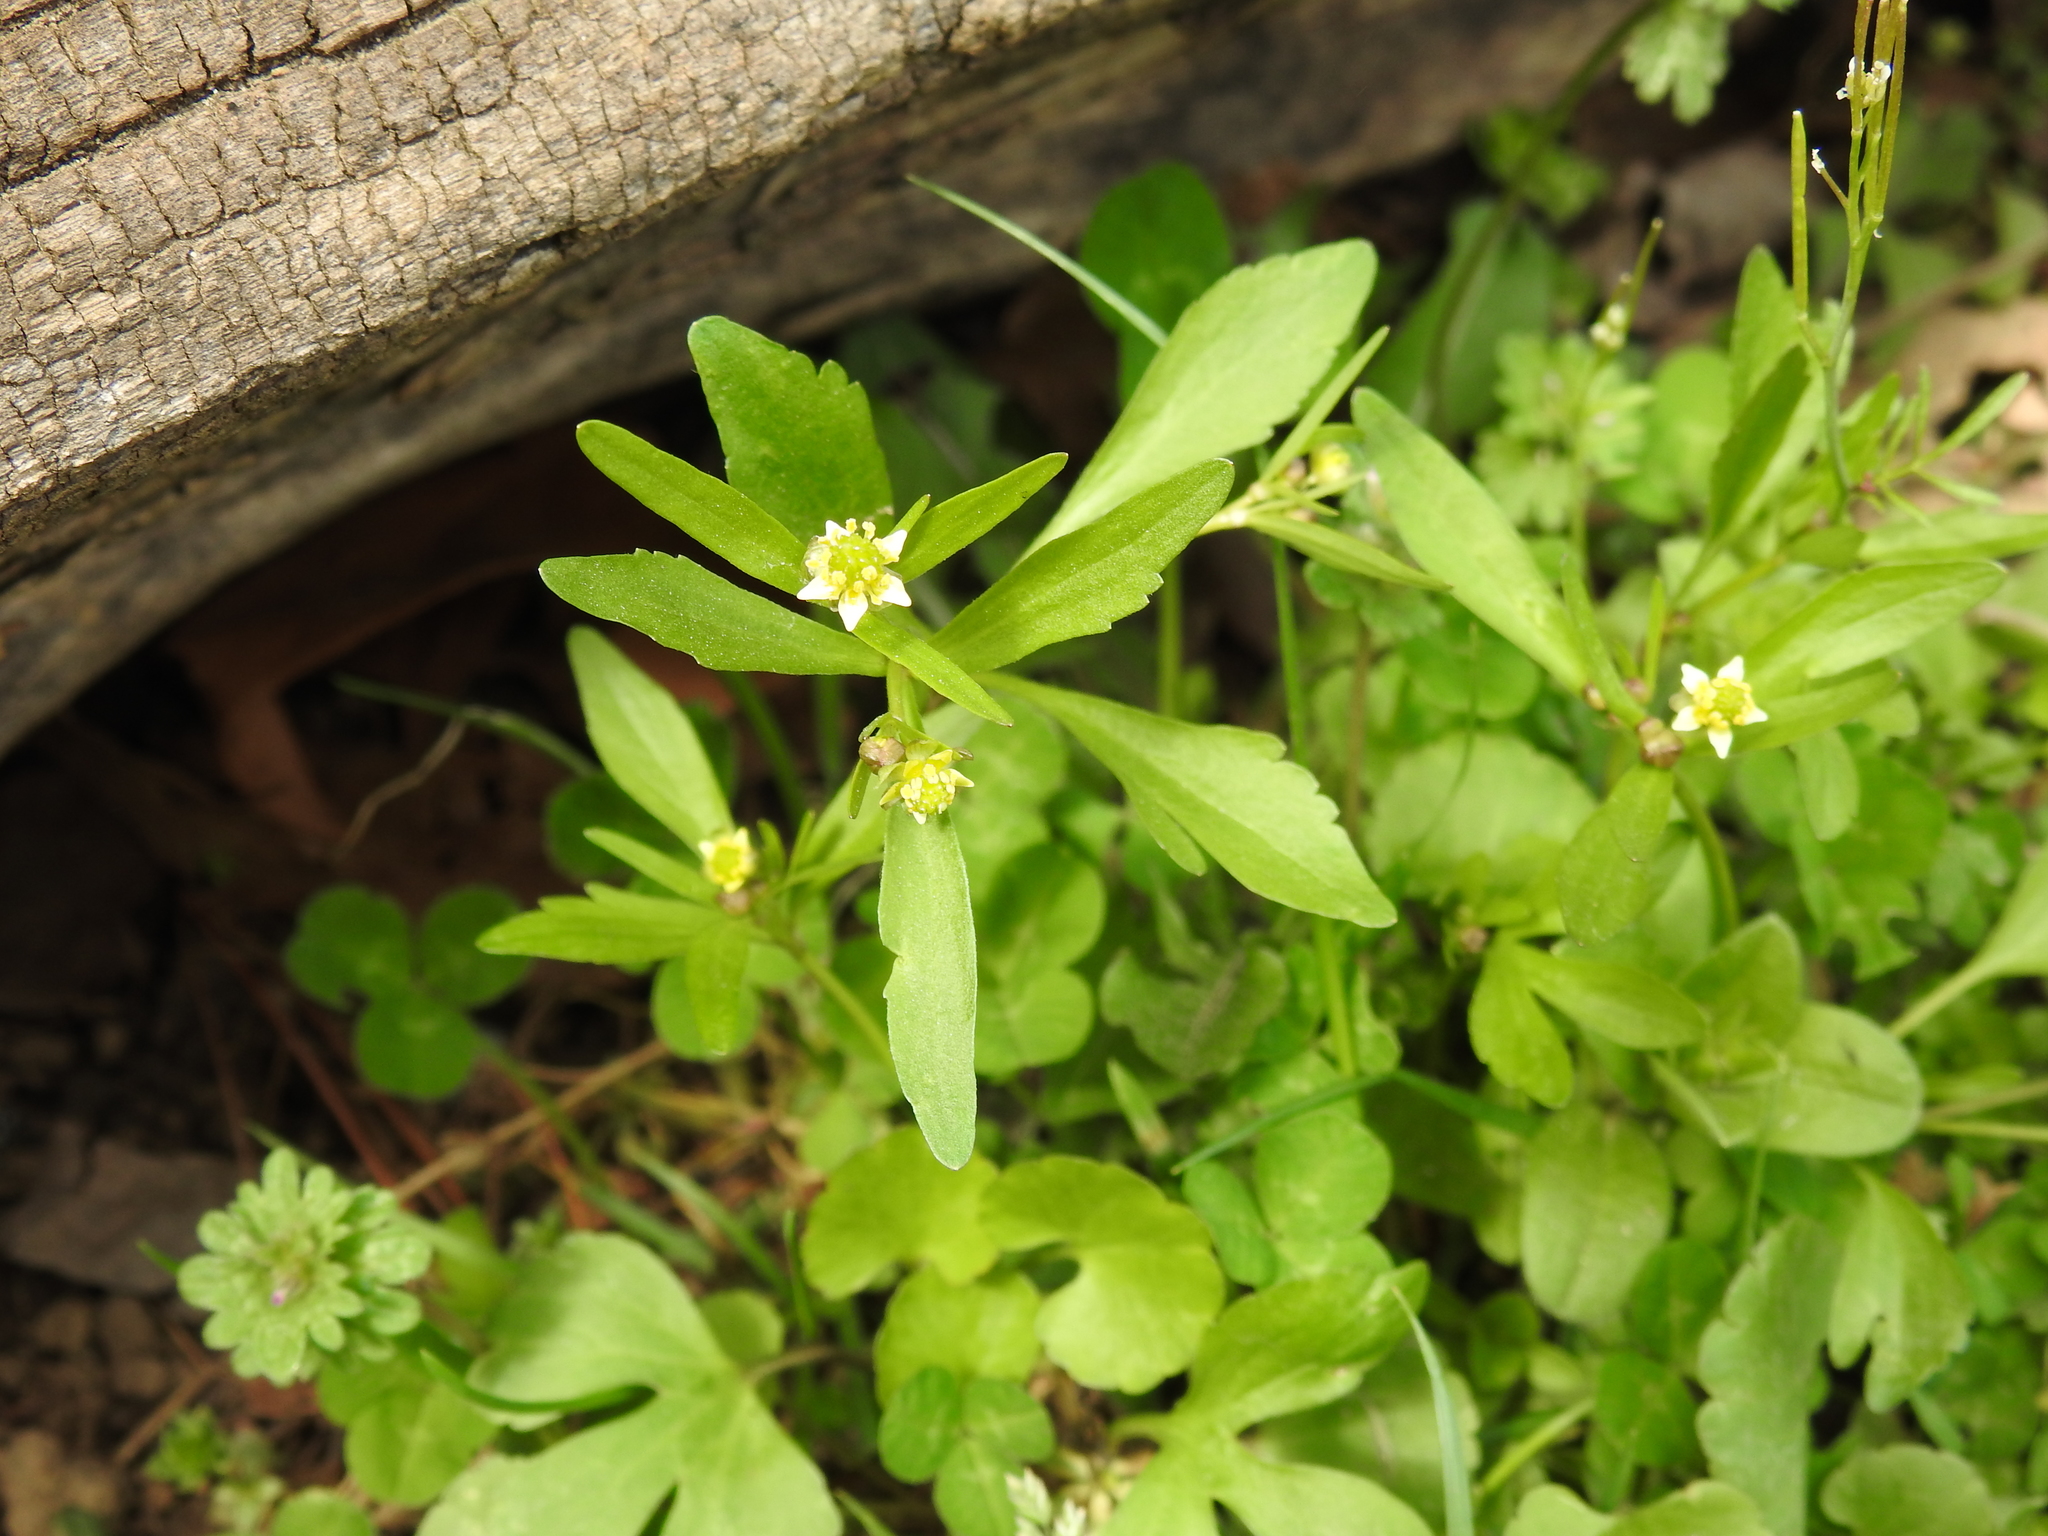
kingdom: Plantae
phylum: Tracheophyta
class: Magnoliopsida
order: Ranunculales
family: Ranunculaceae
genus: Ranunculus
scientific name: Ranunculus abortivus
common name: Early wood buttercup
